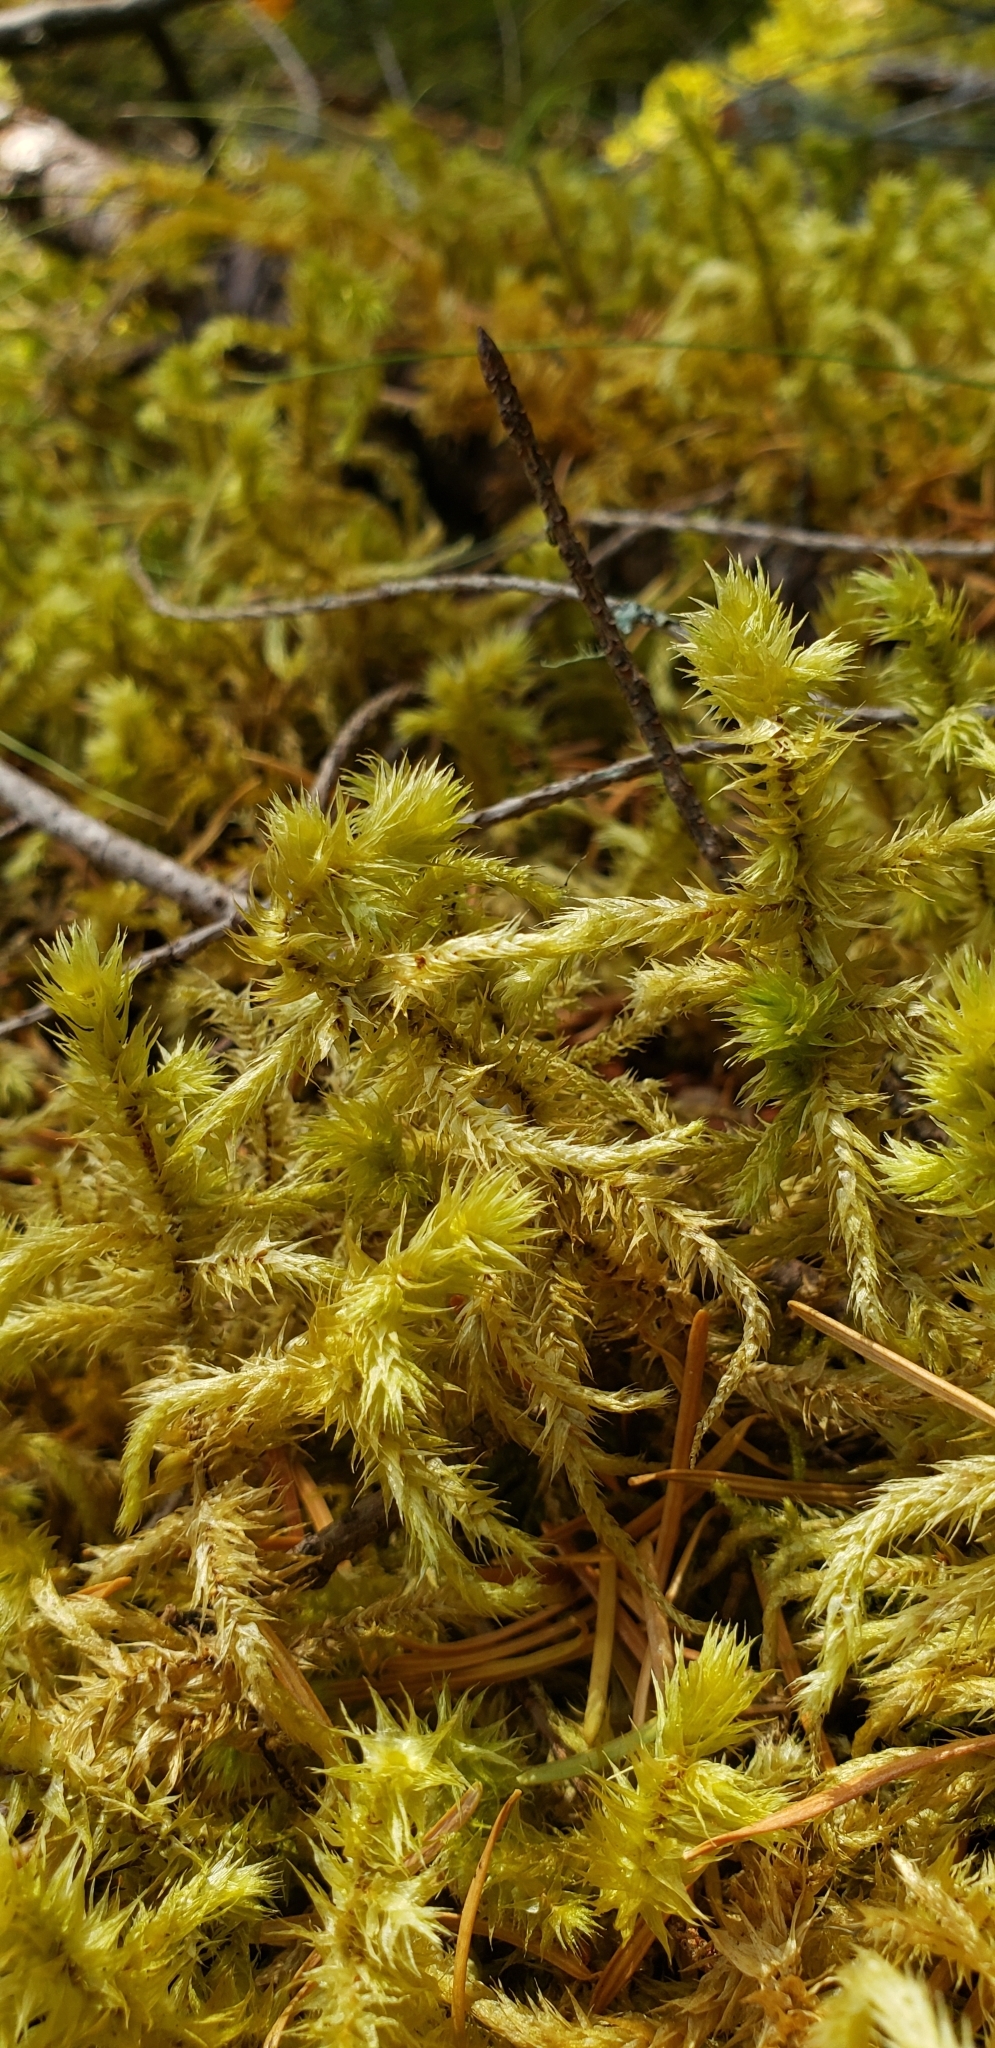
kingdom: Plantae
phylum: Bryophyta
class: Bryopsida
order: Hypnales
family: Hylocomiaceae
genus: Hylocomiadelphus
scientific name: Hylocomiadelphus triquetrus
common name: Rough goose neck moss
